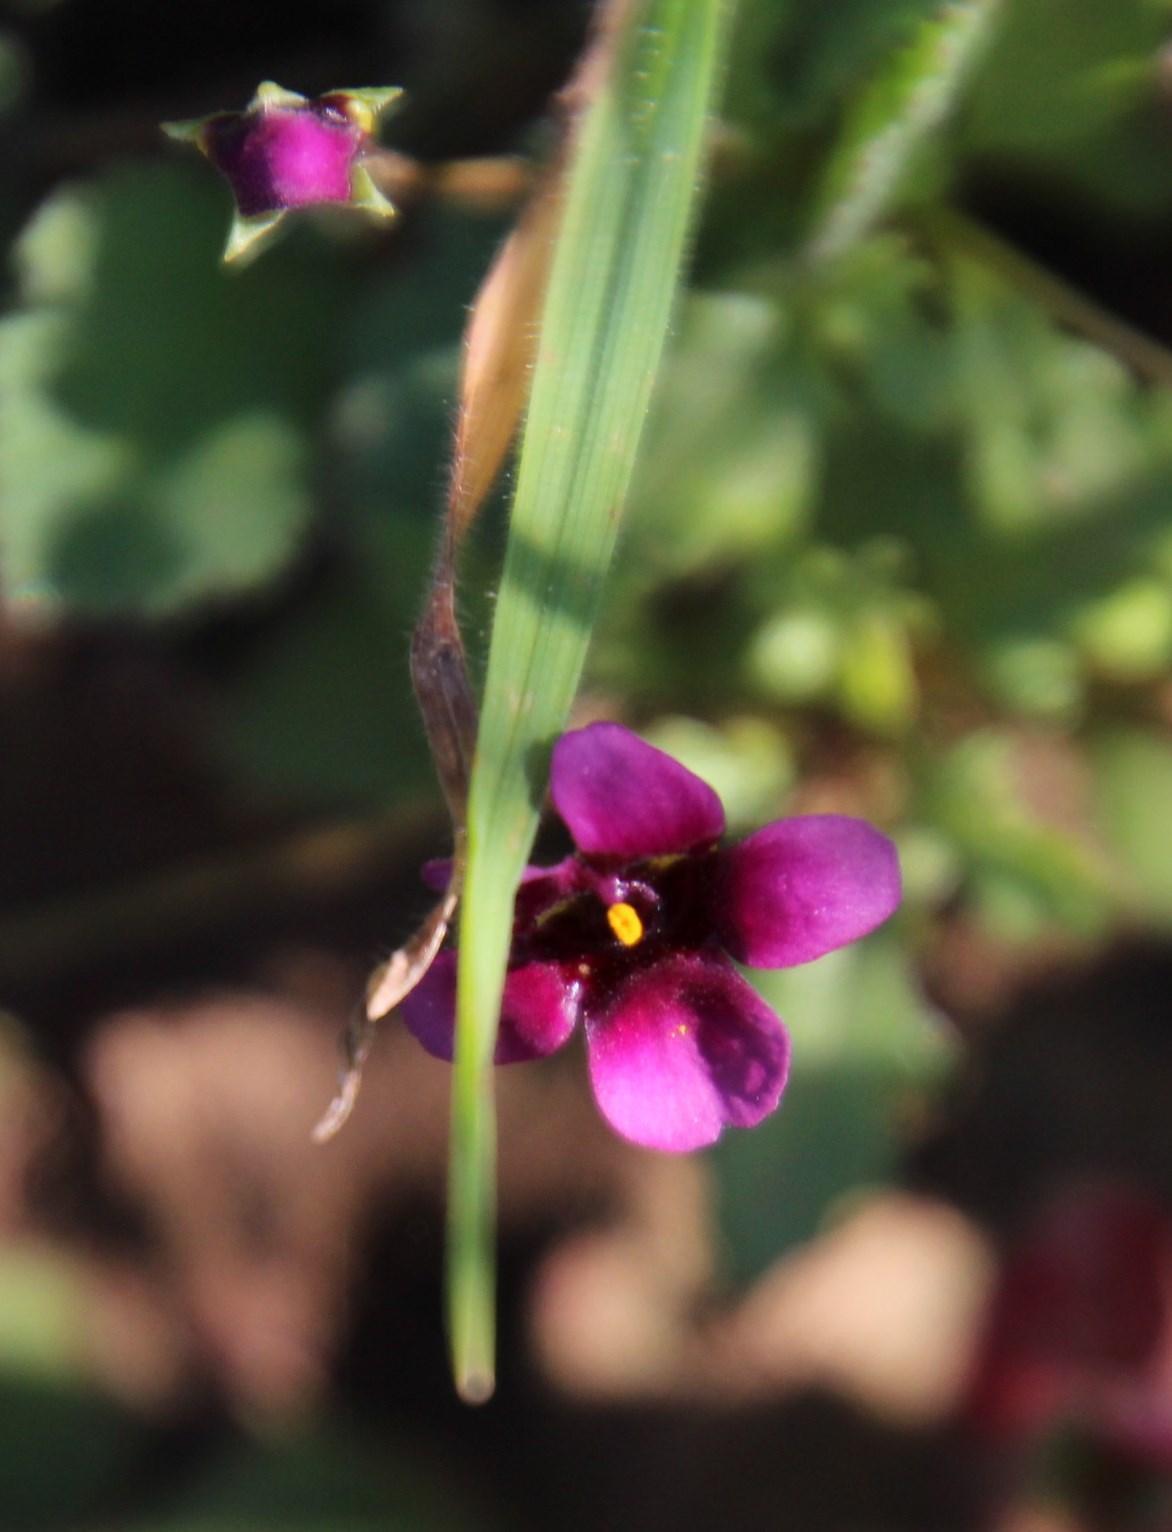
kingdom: Plantae
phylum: Tracheophyta
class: Magnoliopsida
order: Lamiales
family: Scrophulariaceae
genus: Diascia
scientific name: Diascia capensis
